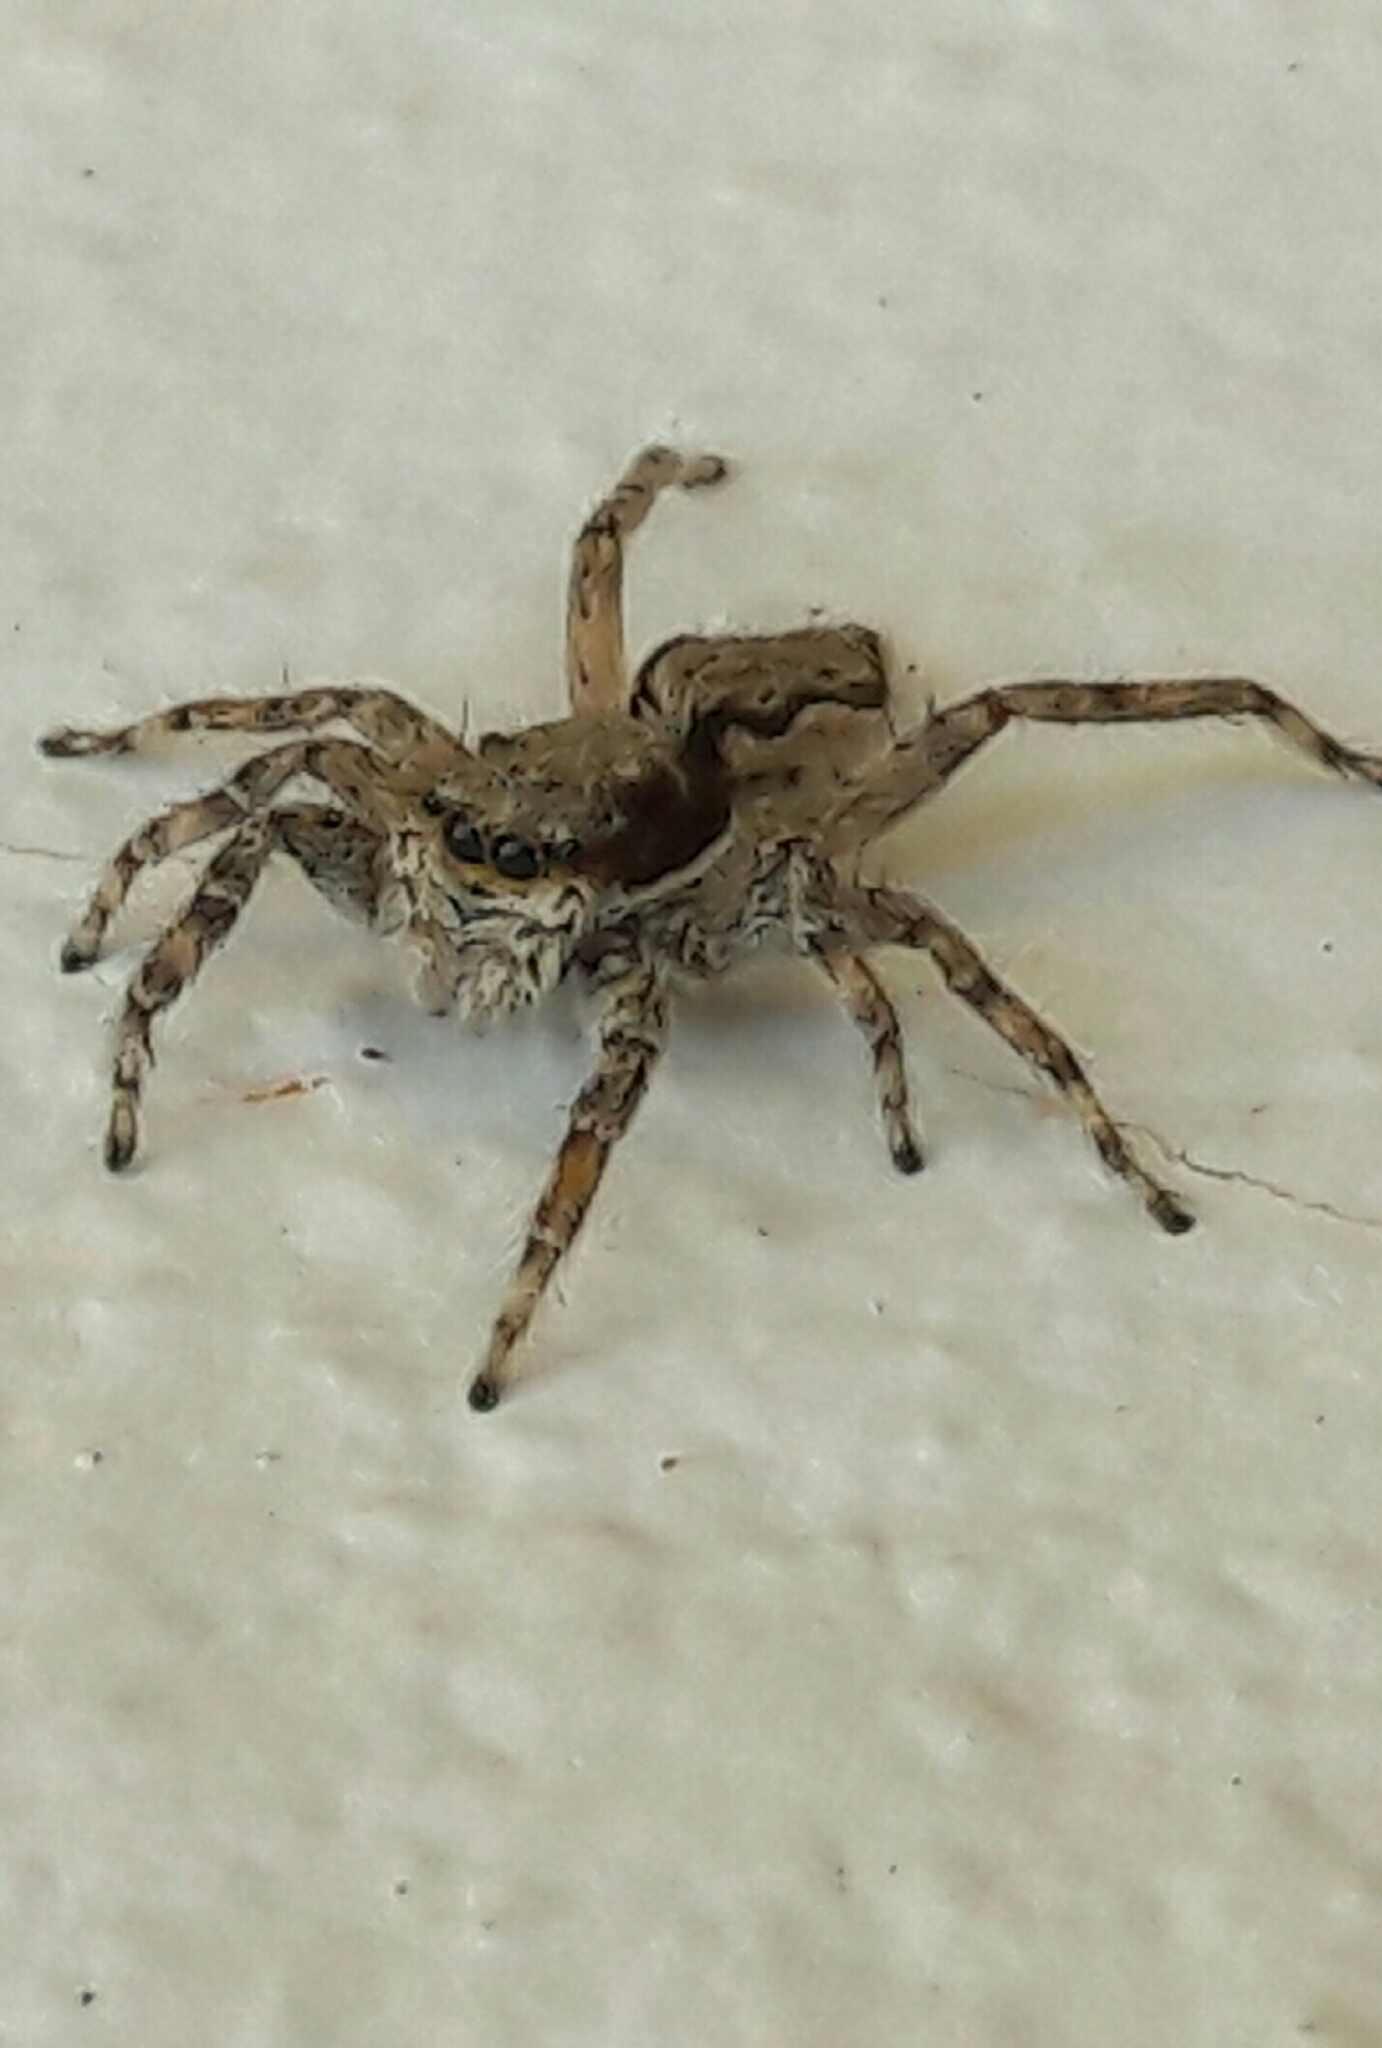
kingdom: Animalia
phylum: Arthropoda
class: Arachnida
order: Araneae
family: Salticidae
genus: Menemerus
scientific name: Menemerus bivittatus
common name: Gray wall jumper
